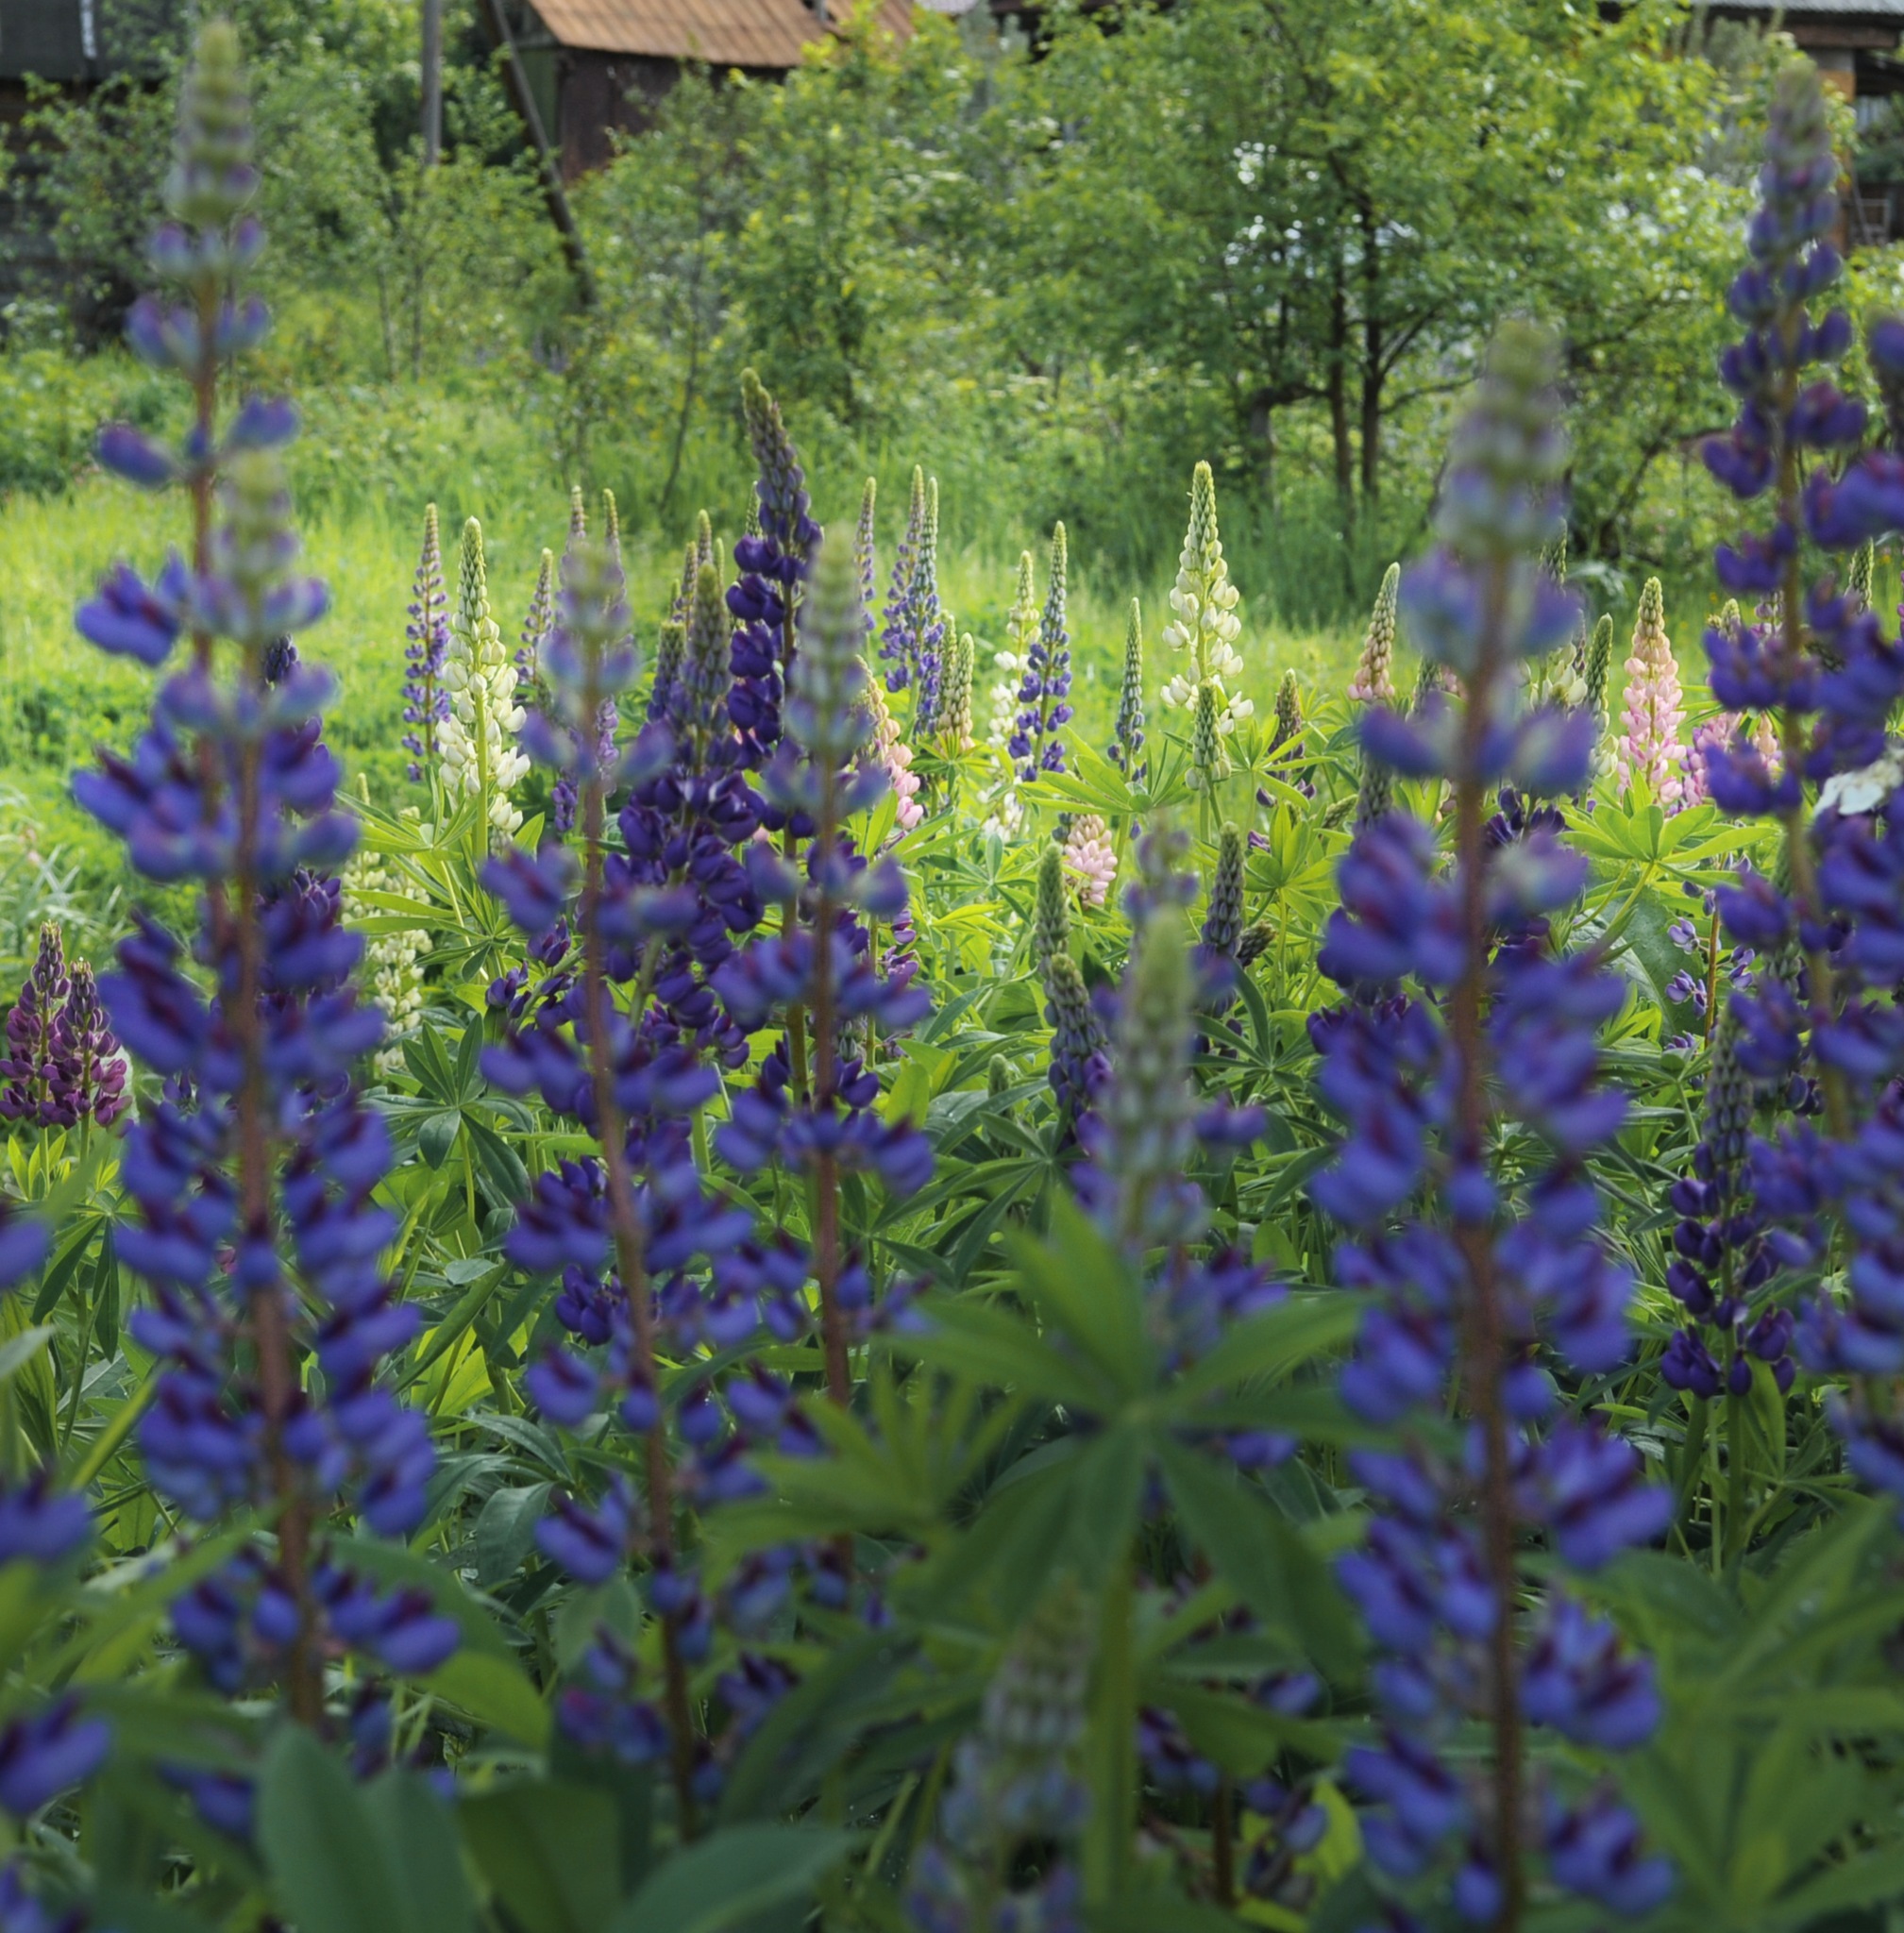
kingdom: Plantae
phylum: Tracheophyta
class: Magnoliopsida
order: Fabales
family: Fabaceae
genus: Lupinus
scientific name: Lupinus polyphyllus
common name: Garden lupin
